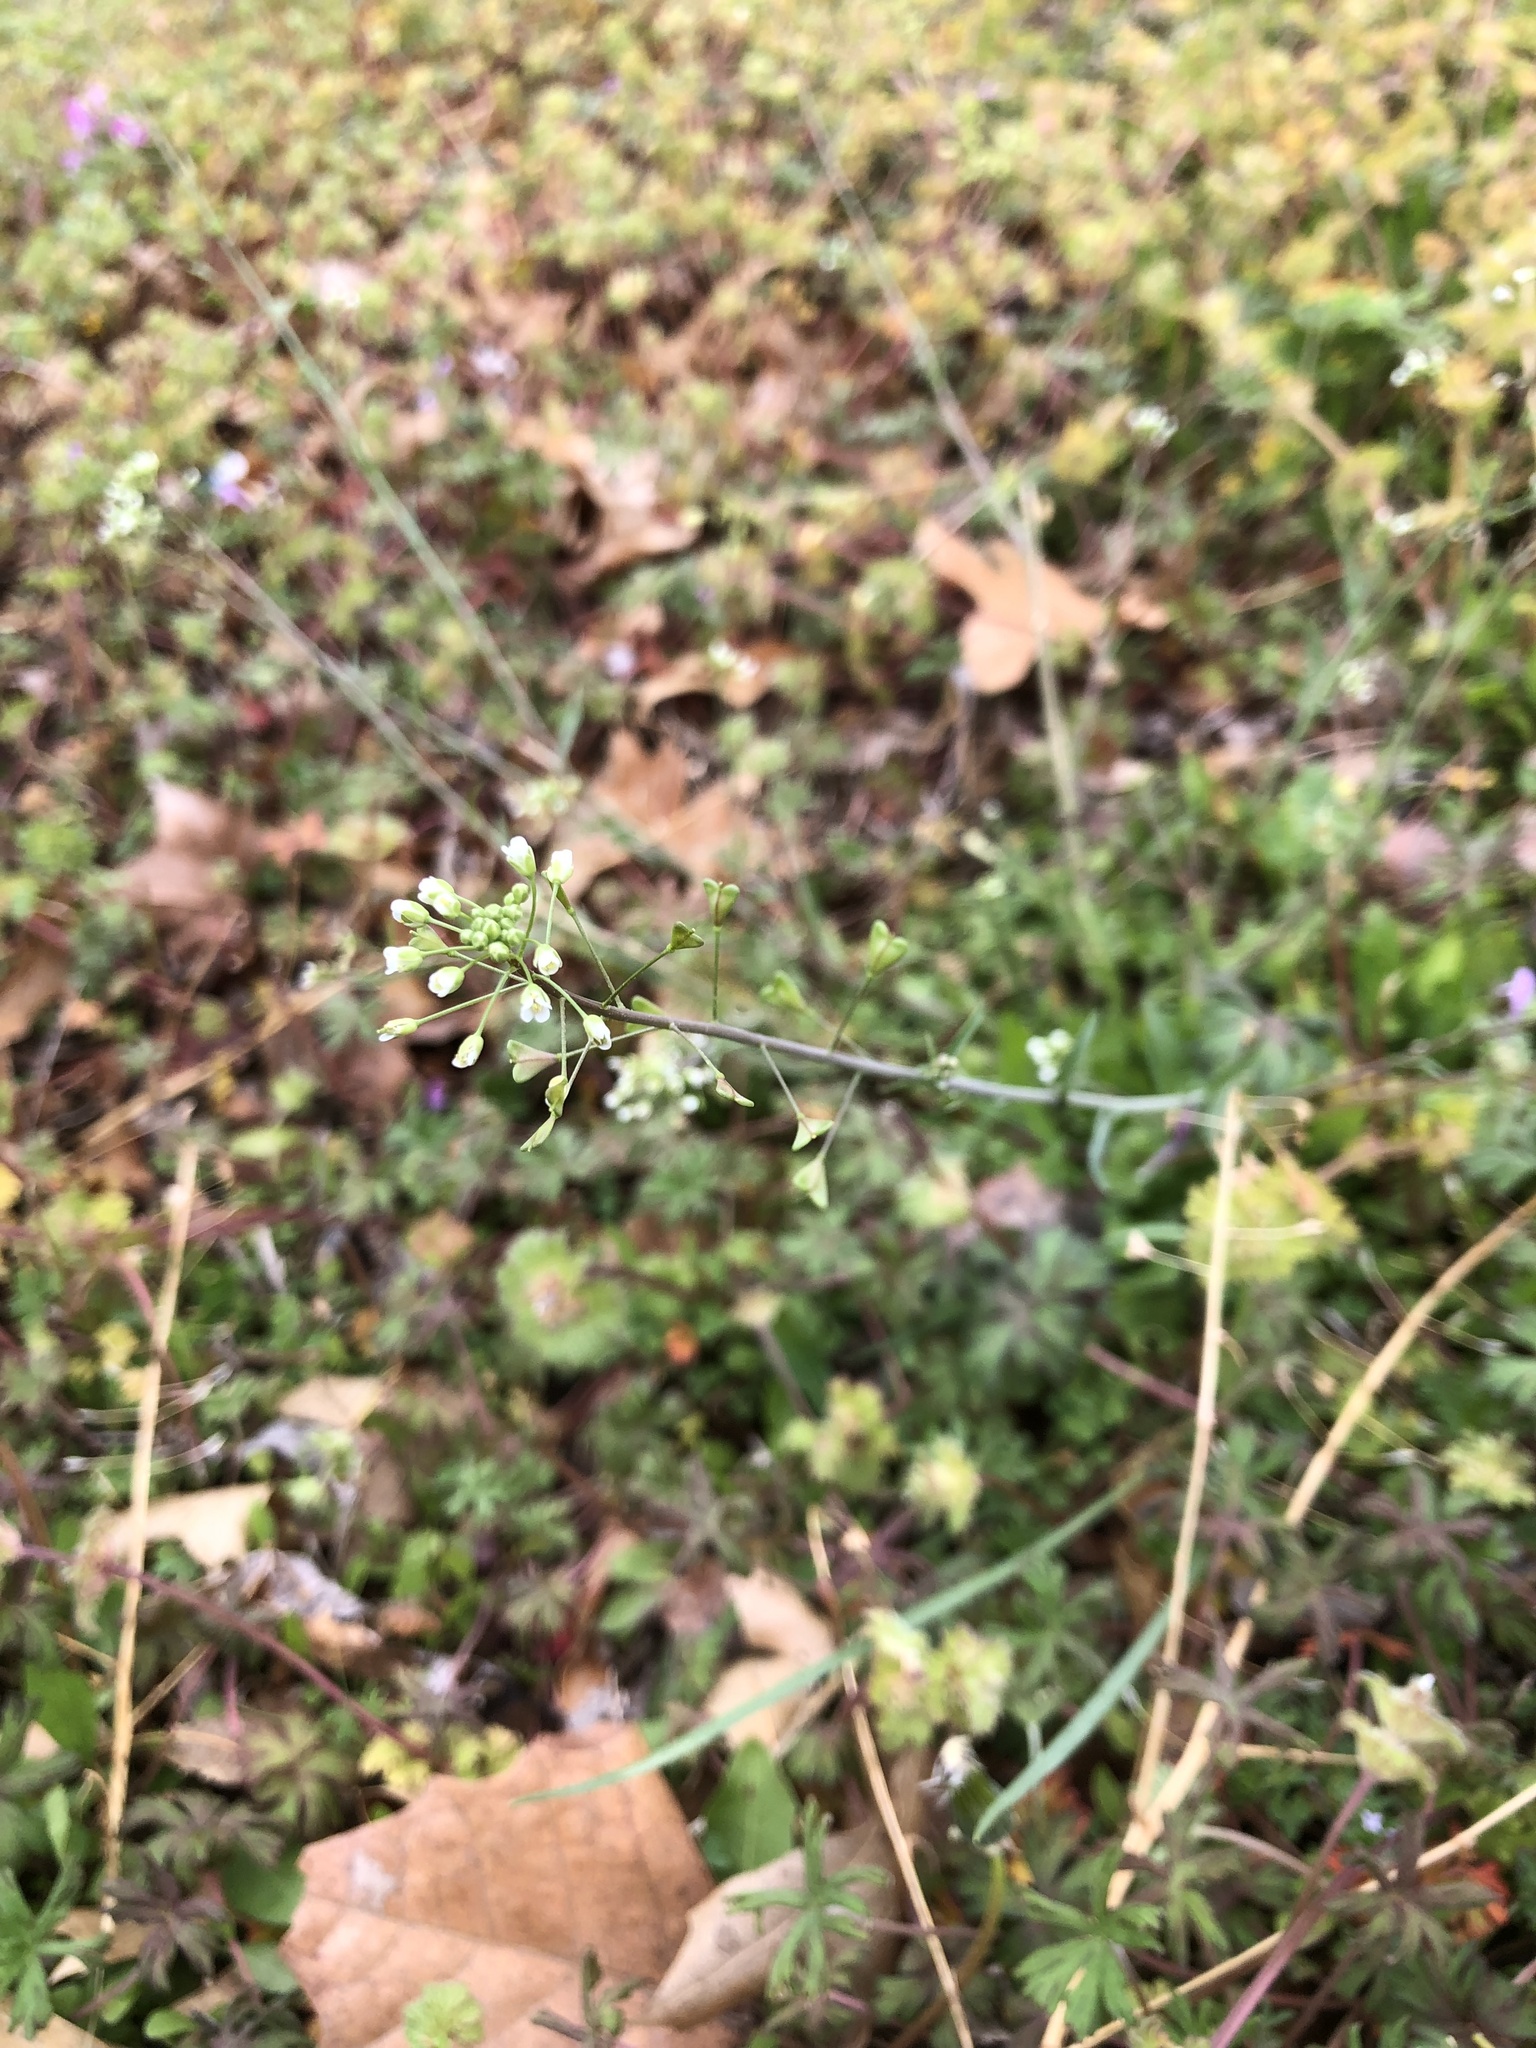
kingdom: Plantae
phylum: Tracheophyta
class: Magnoliopsida
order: Brassicales
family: Brassicaceae
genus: Capsella
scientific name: Capsella bursa-pastoris
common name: Shepherd's purse
